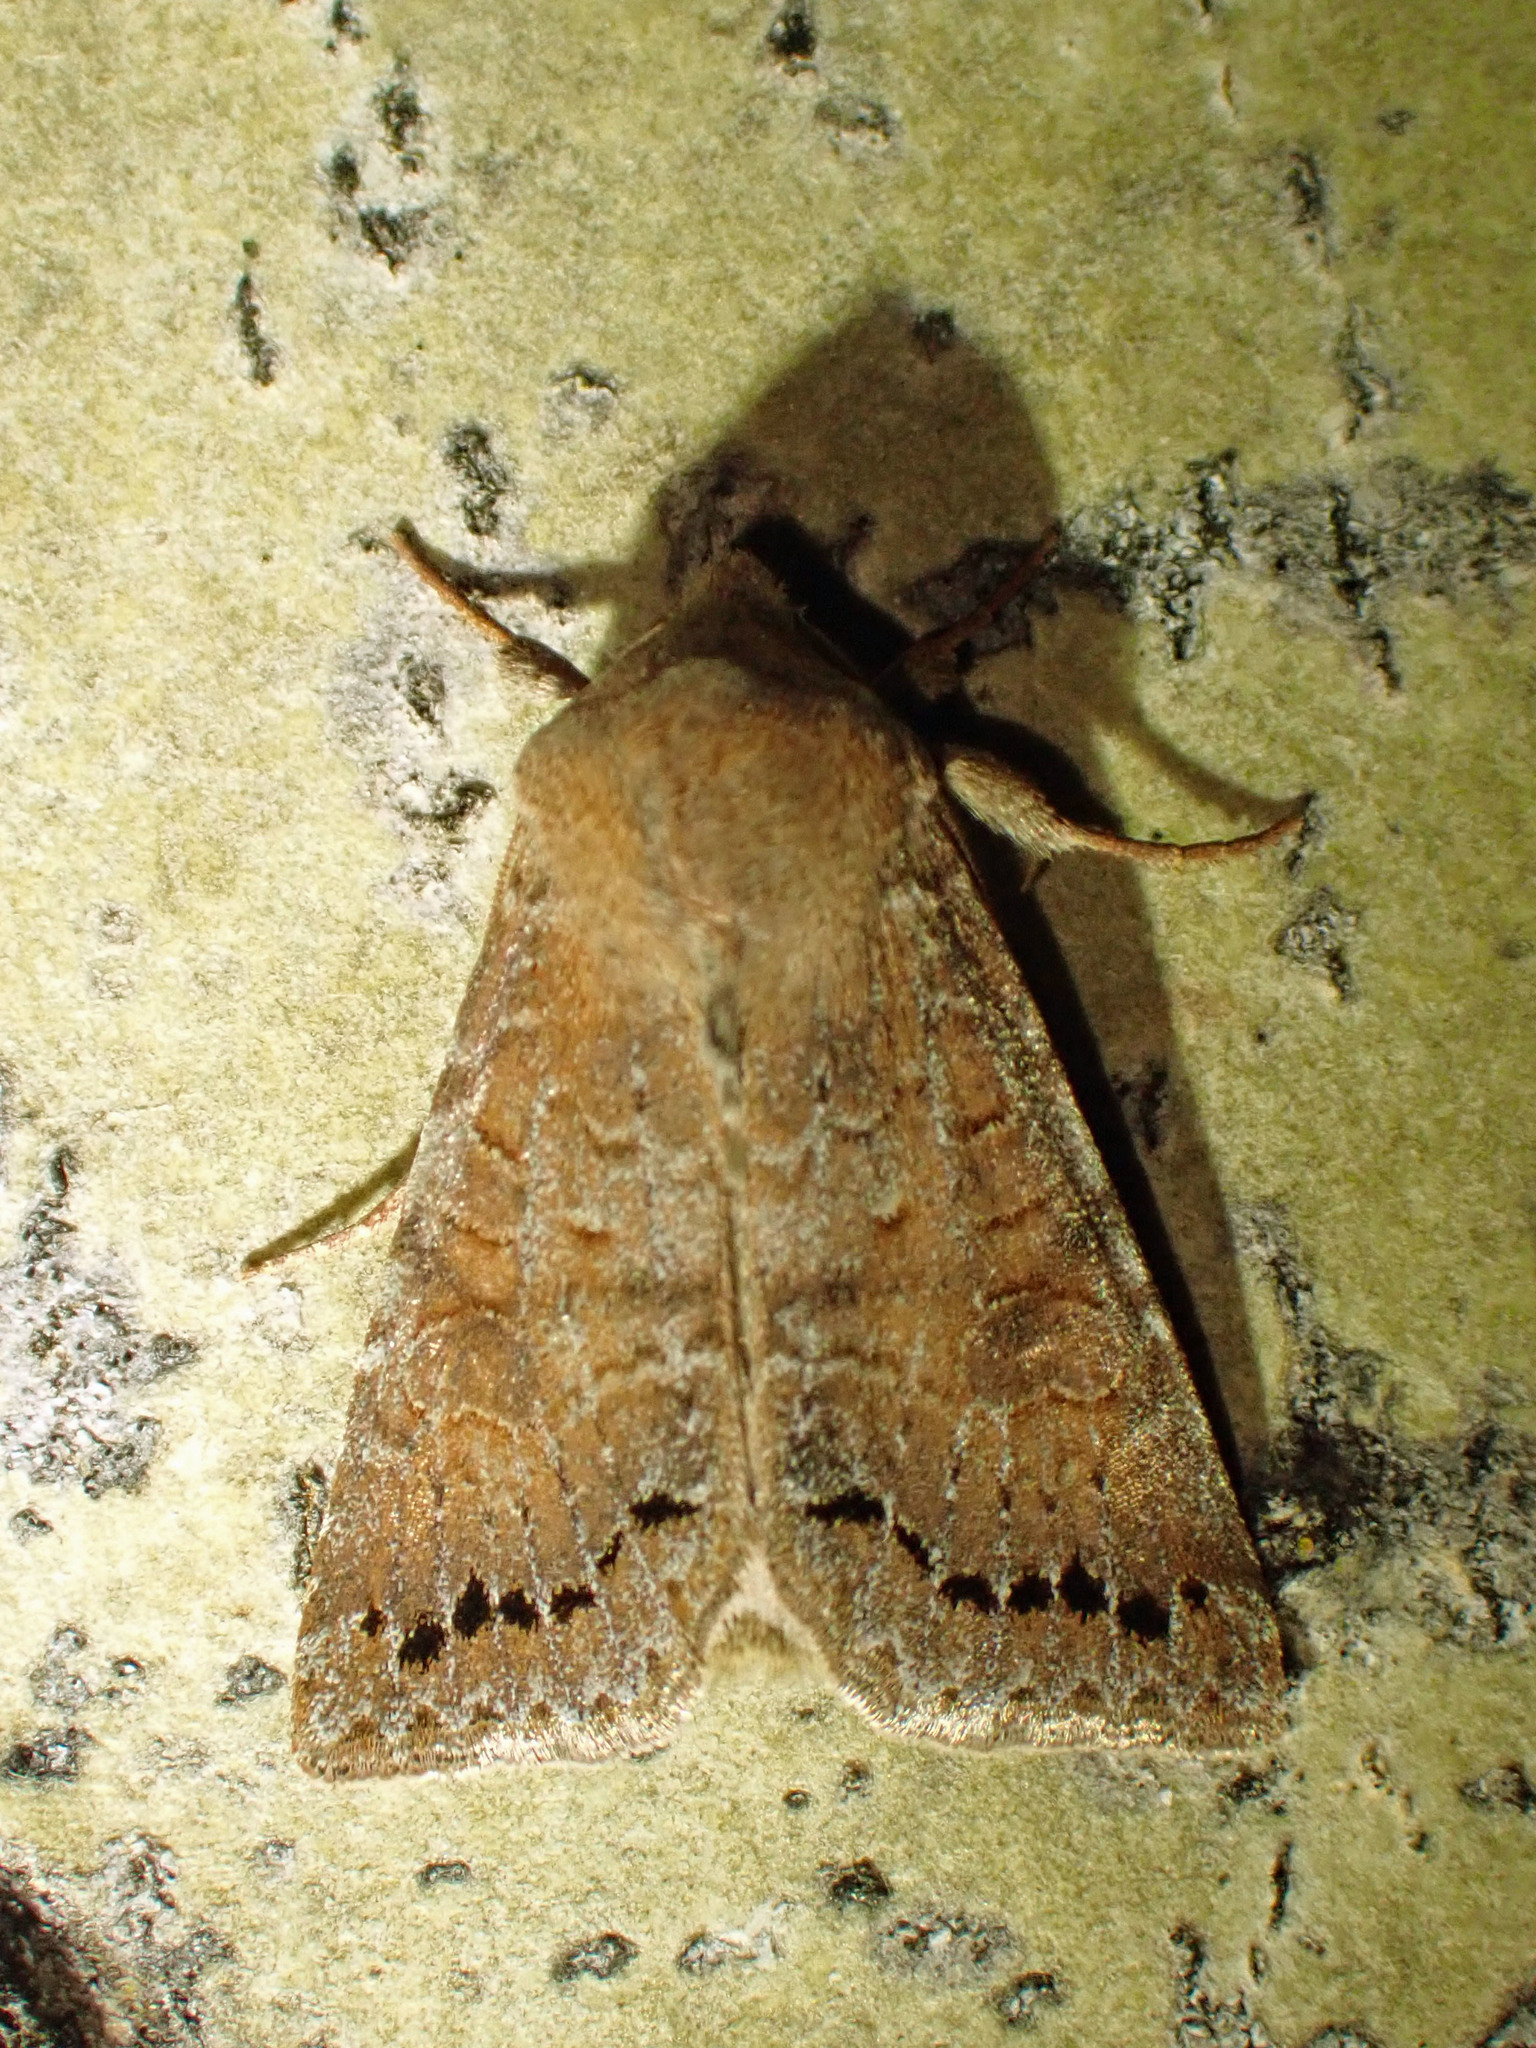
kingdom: Animalia
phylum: Arthropoda
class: Insecta
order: Lepidoptera
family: Noctuidae
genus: Orthosia
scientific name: Orthosia revicta
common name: Rusty whitesided caterpillar
